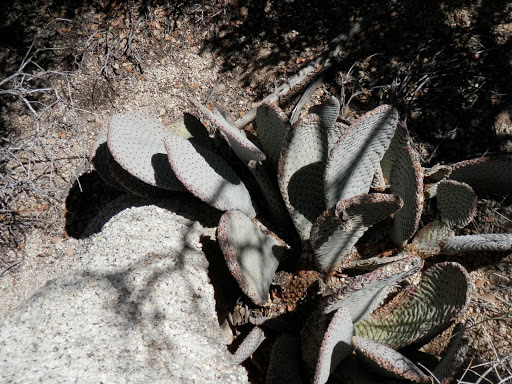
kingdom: Plantae
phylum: Tracheophyta
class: Magnoliopsida
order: Caryophyllales
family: Cactaceae
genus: Opuntia
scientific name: Opuntia basilaris
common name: Beavertail prickly-pear
